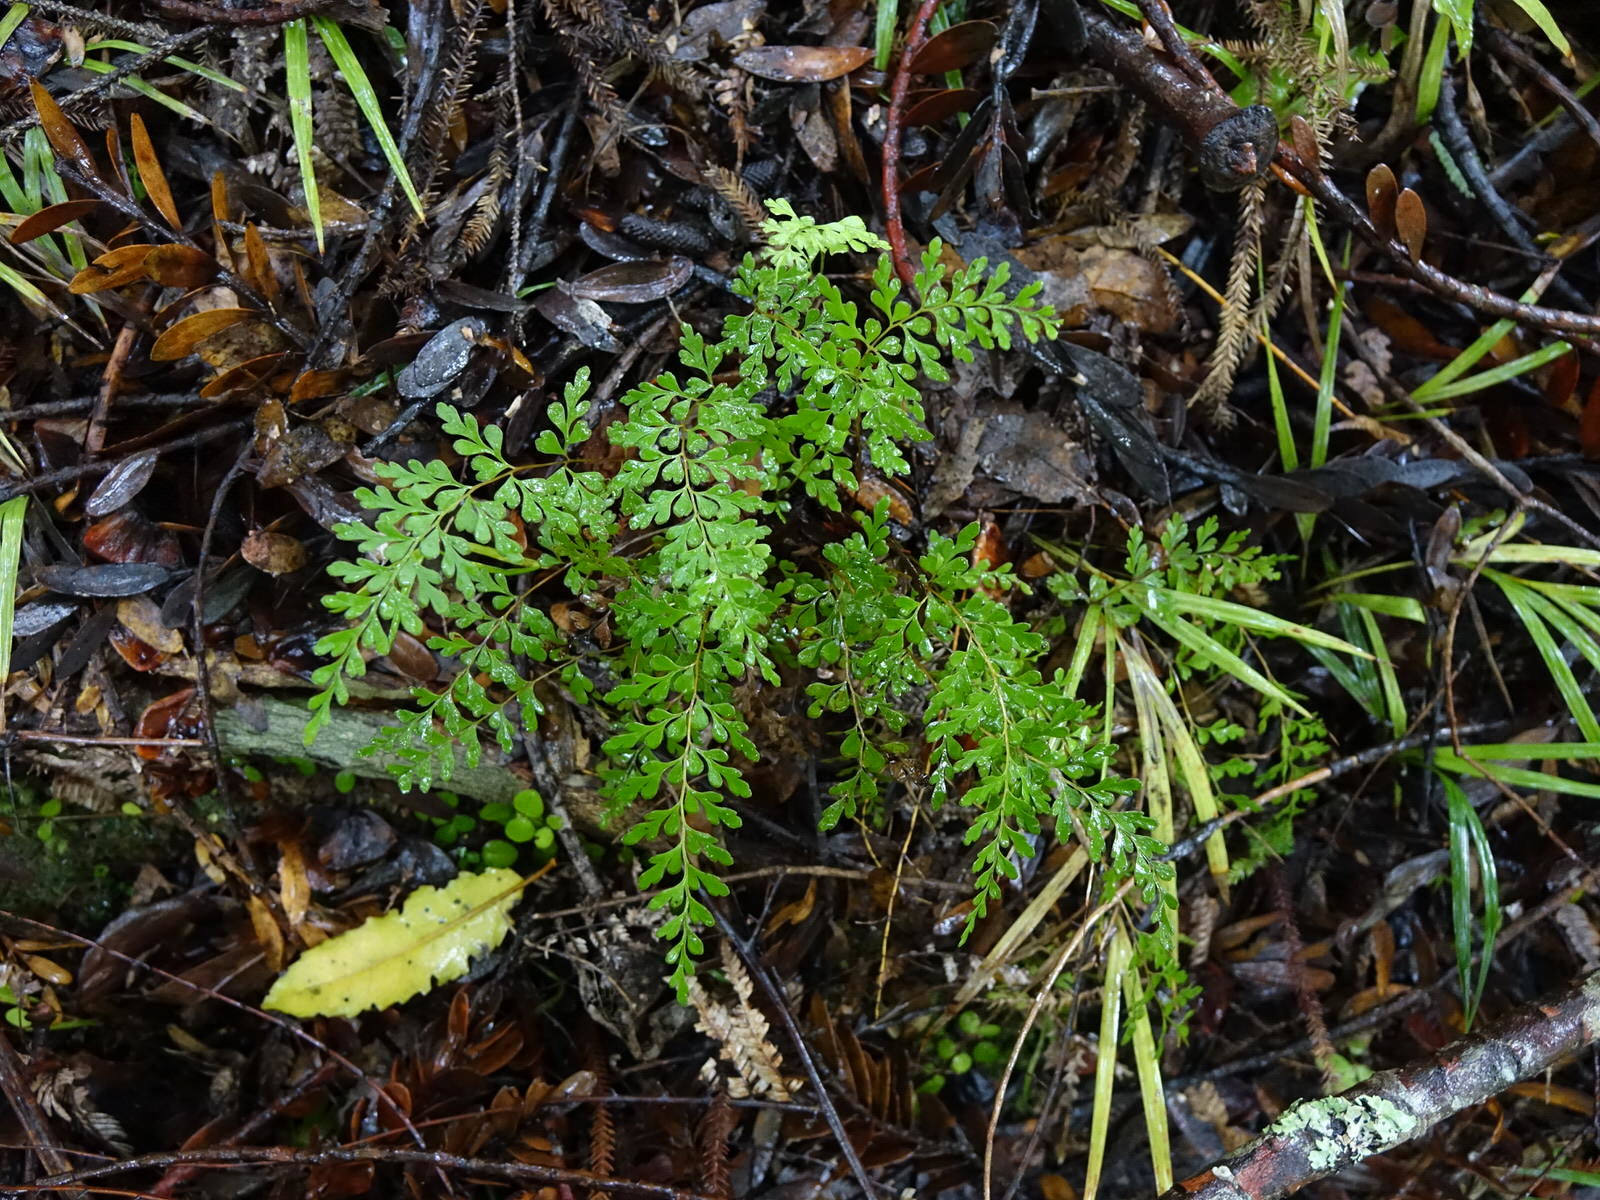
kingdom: Plantae
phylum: Tracheophyta
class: Polypodiopsida
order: Polypodiales
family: Lindsaeaceae
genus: Lindsaea
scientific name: Lindsaea trichomanoides
